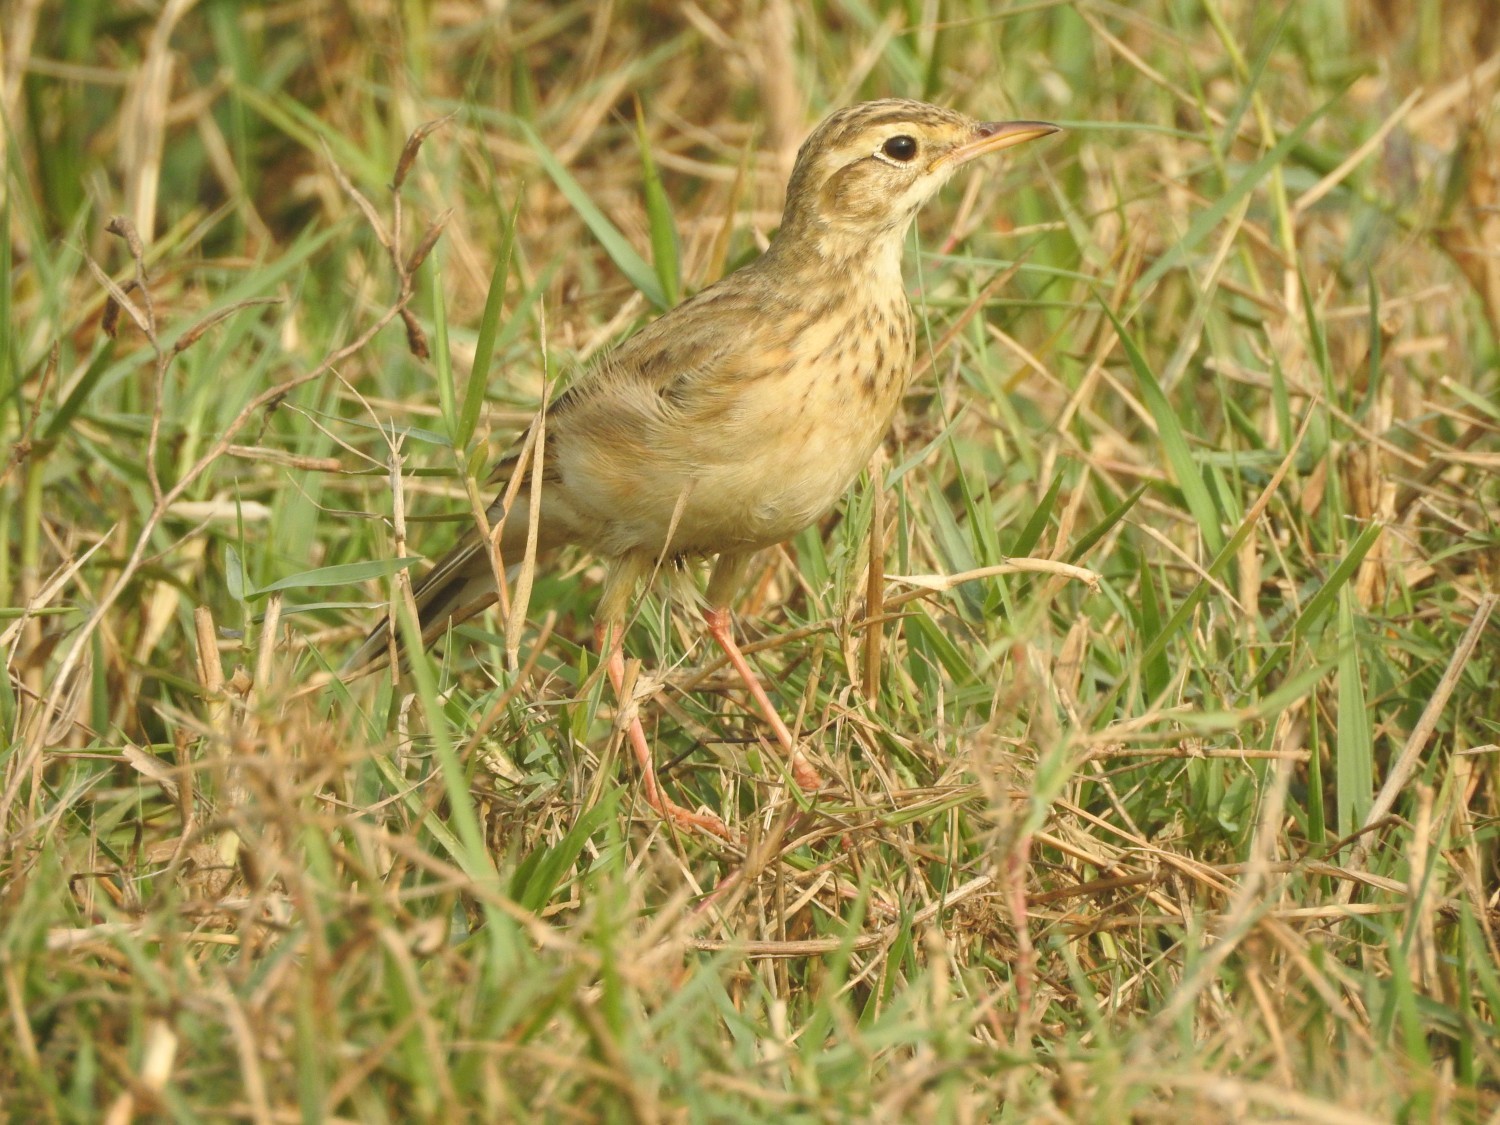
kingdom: Animalia
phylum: Chordata
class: Aves
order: Passeriformes
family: Motacillidae
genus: Anthus
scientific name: Anthus rufulus
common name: Paddyfield pipit
